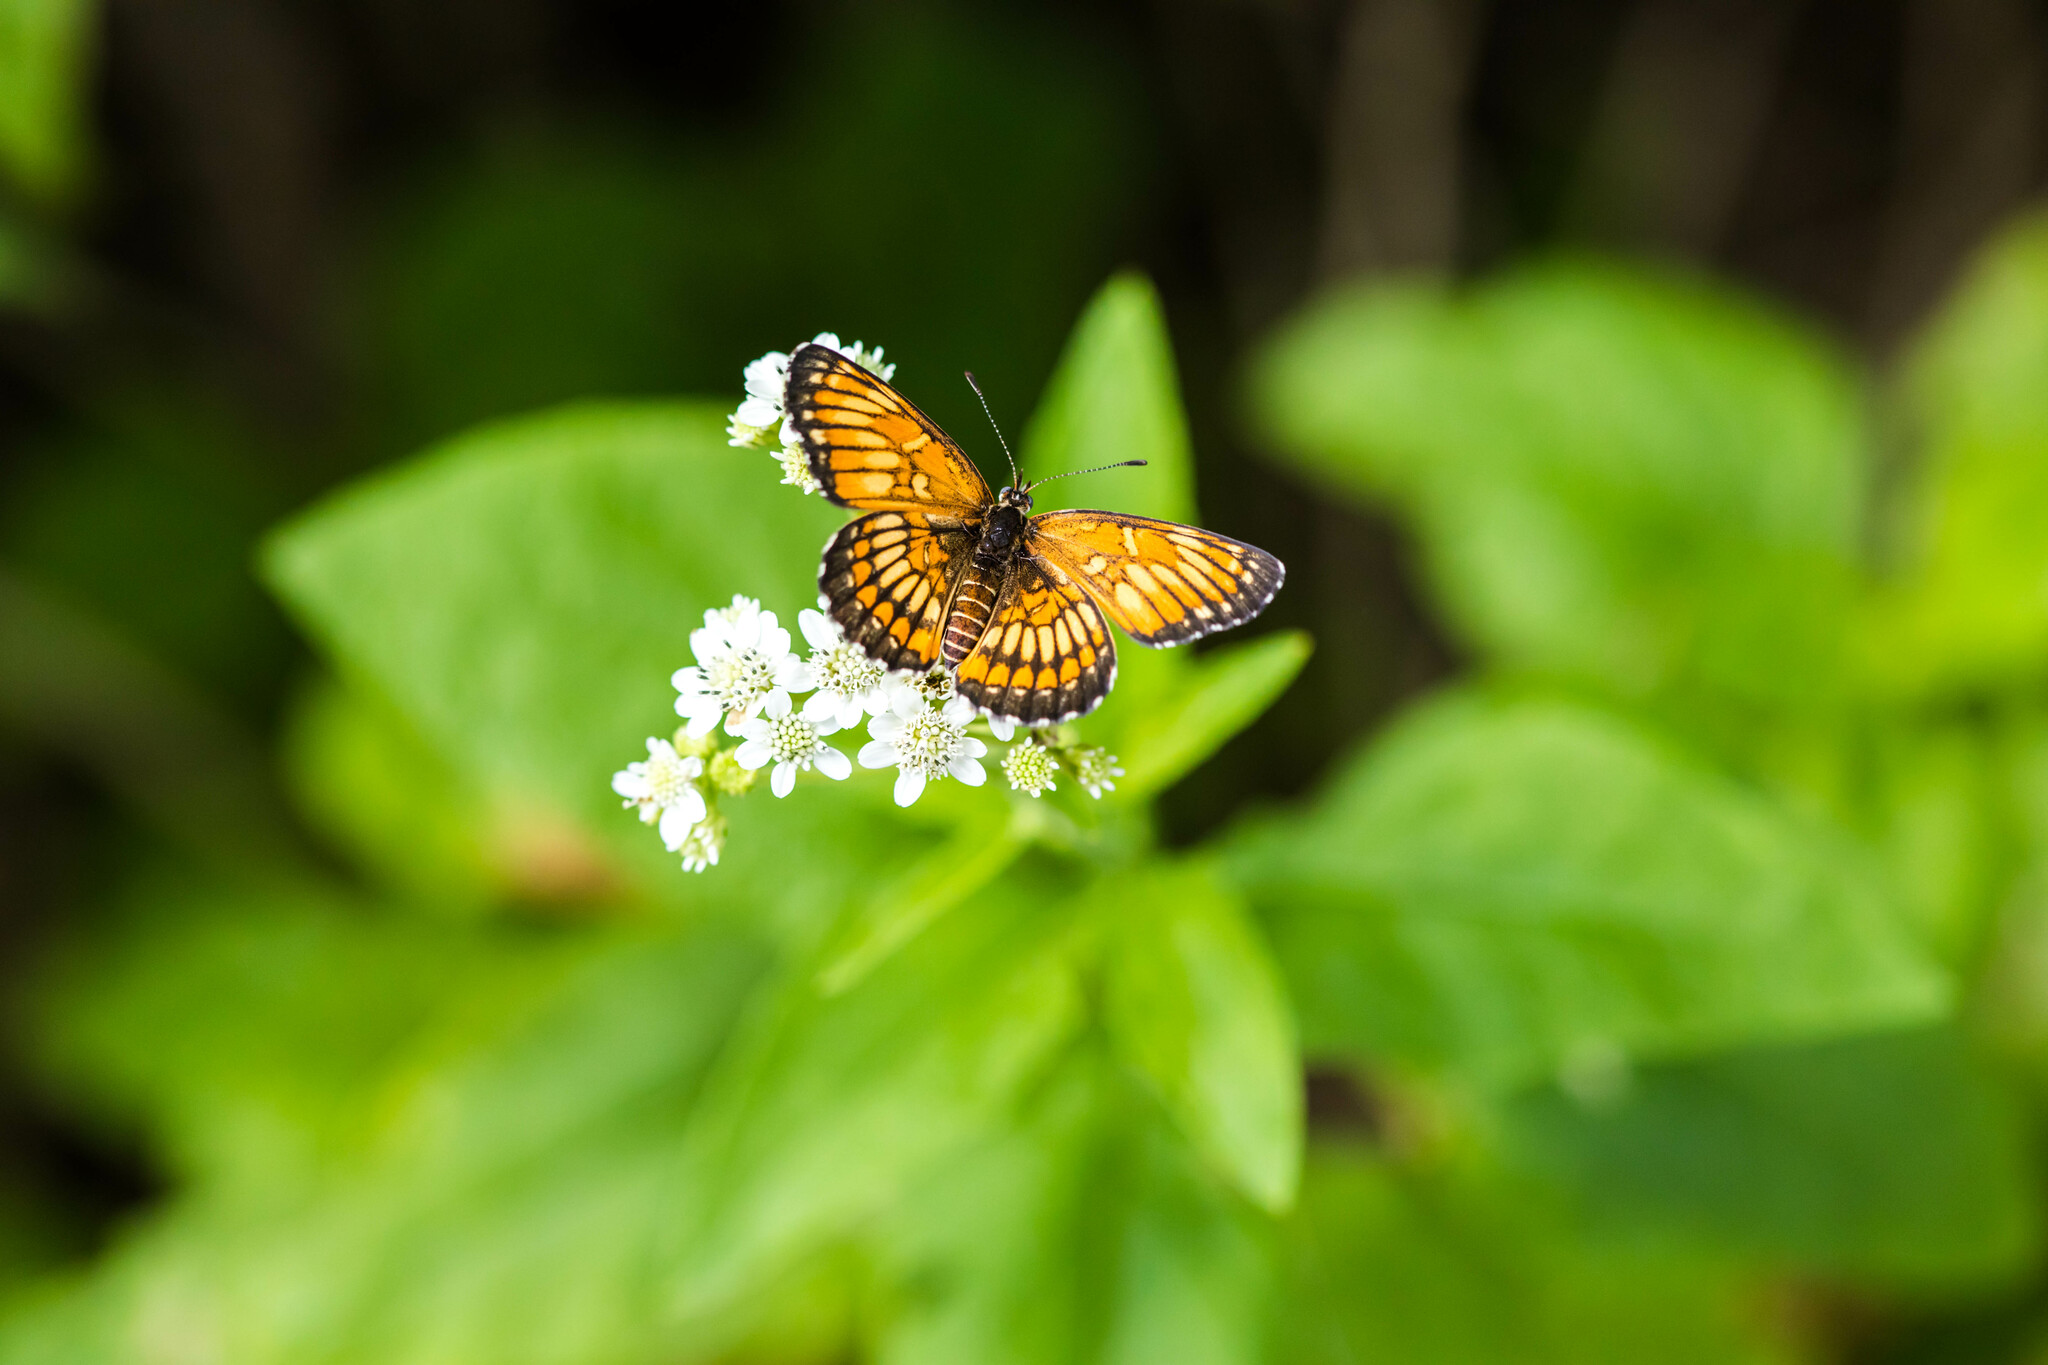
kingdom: Animalia
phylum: Arthropoda
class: Insecta
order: Lepidoptera
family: Nymphalidae
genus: Thessalia
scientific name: Thessalia theona
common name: Nymphalid moth
